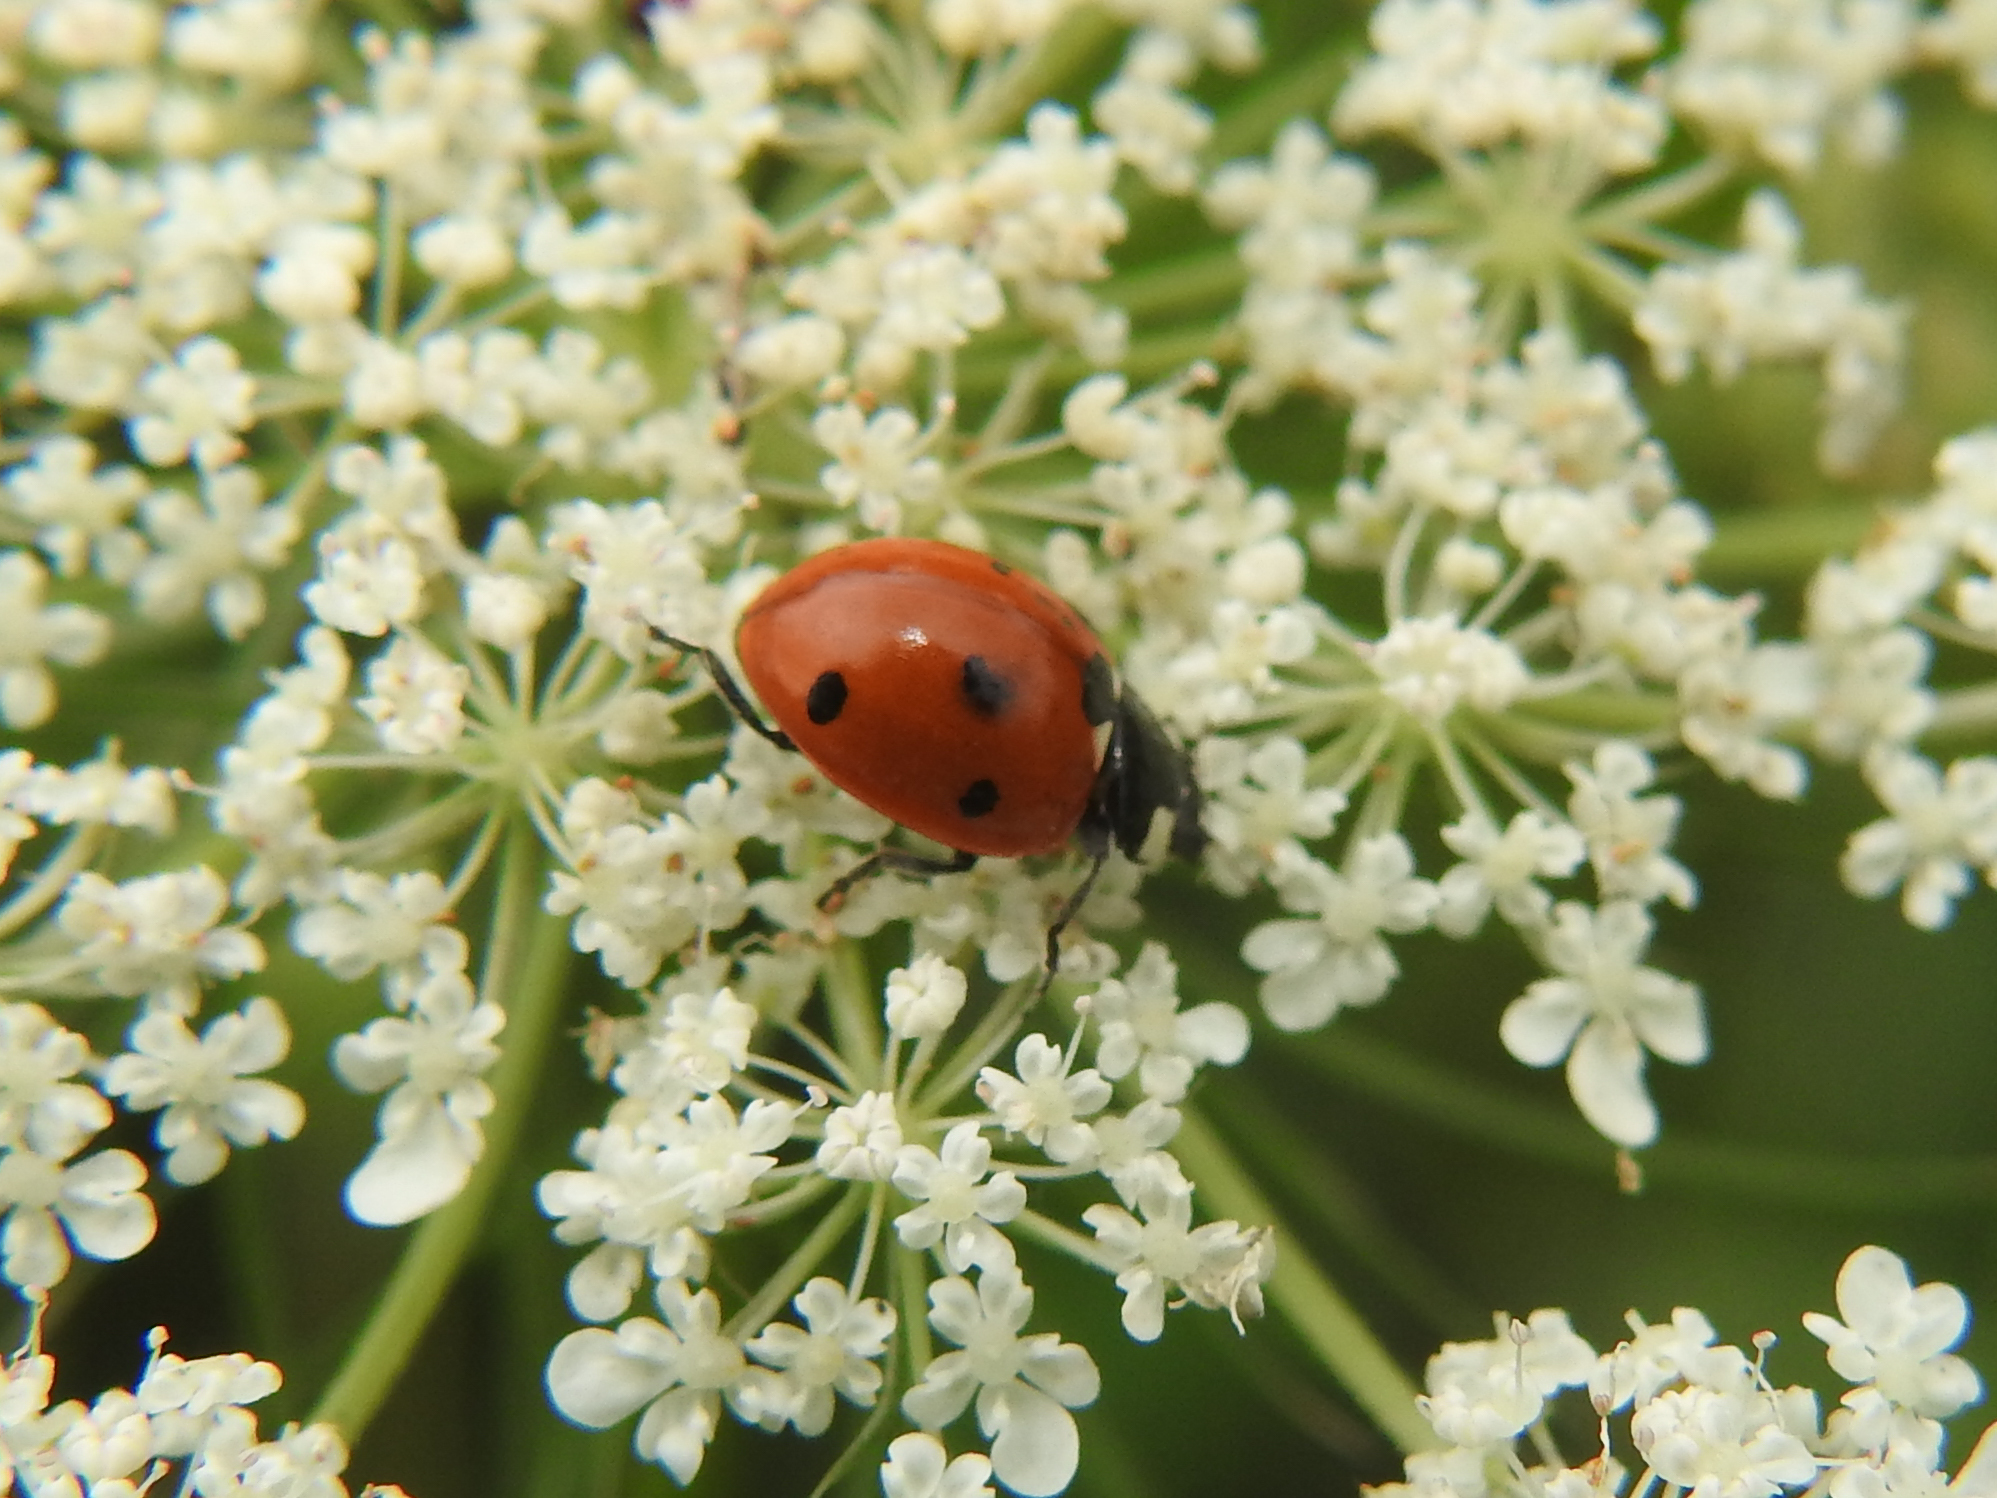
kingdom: Animalia
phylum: Arthropoda
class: Insecta
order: Coleoptera
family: Coccinellidae
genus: Coccinella
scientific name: Coccinella septempunctata
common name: Sevenspotted lady beetle
